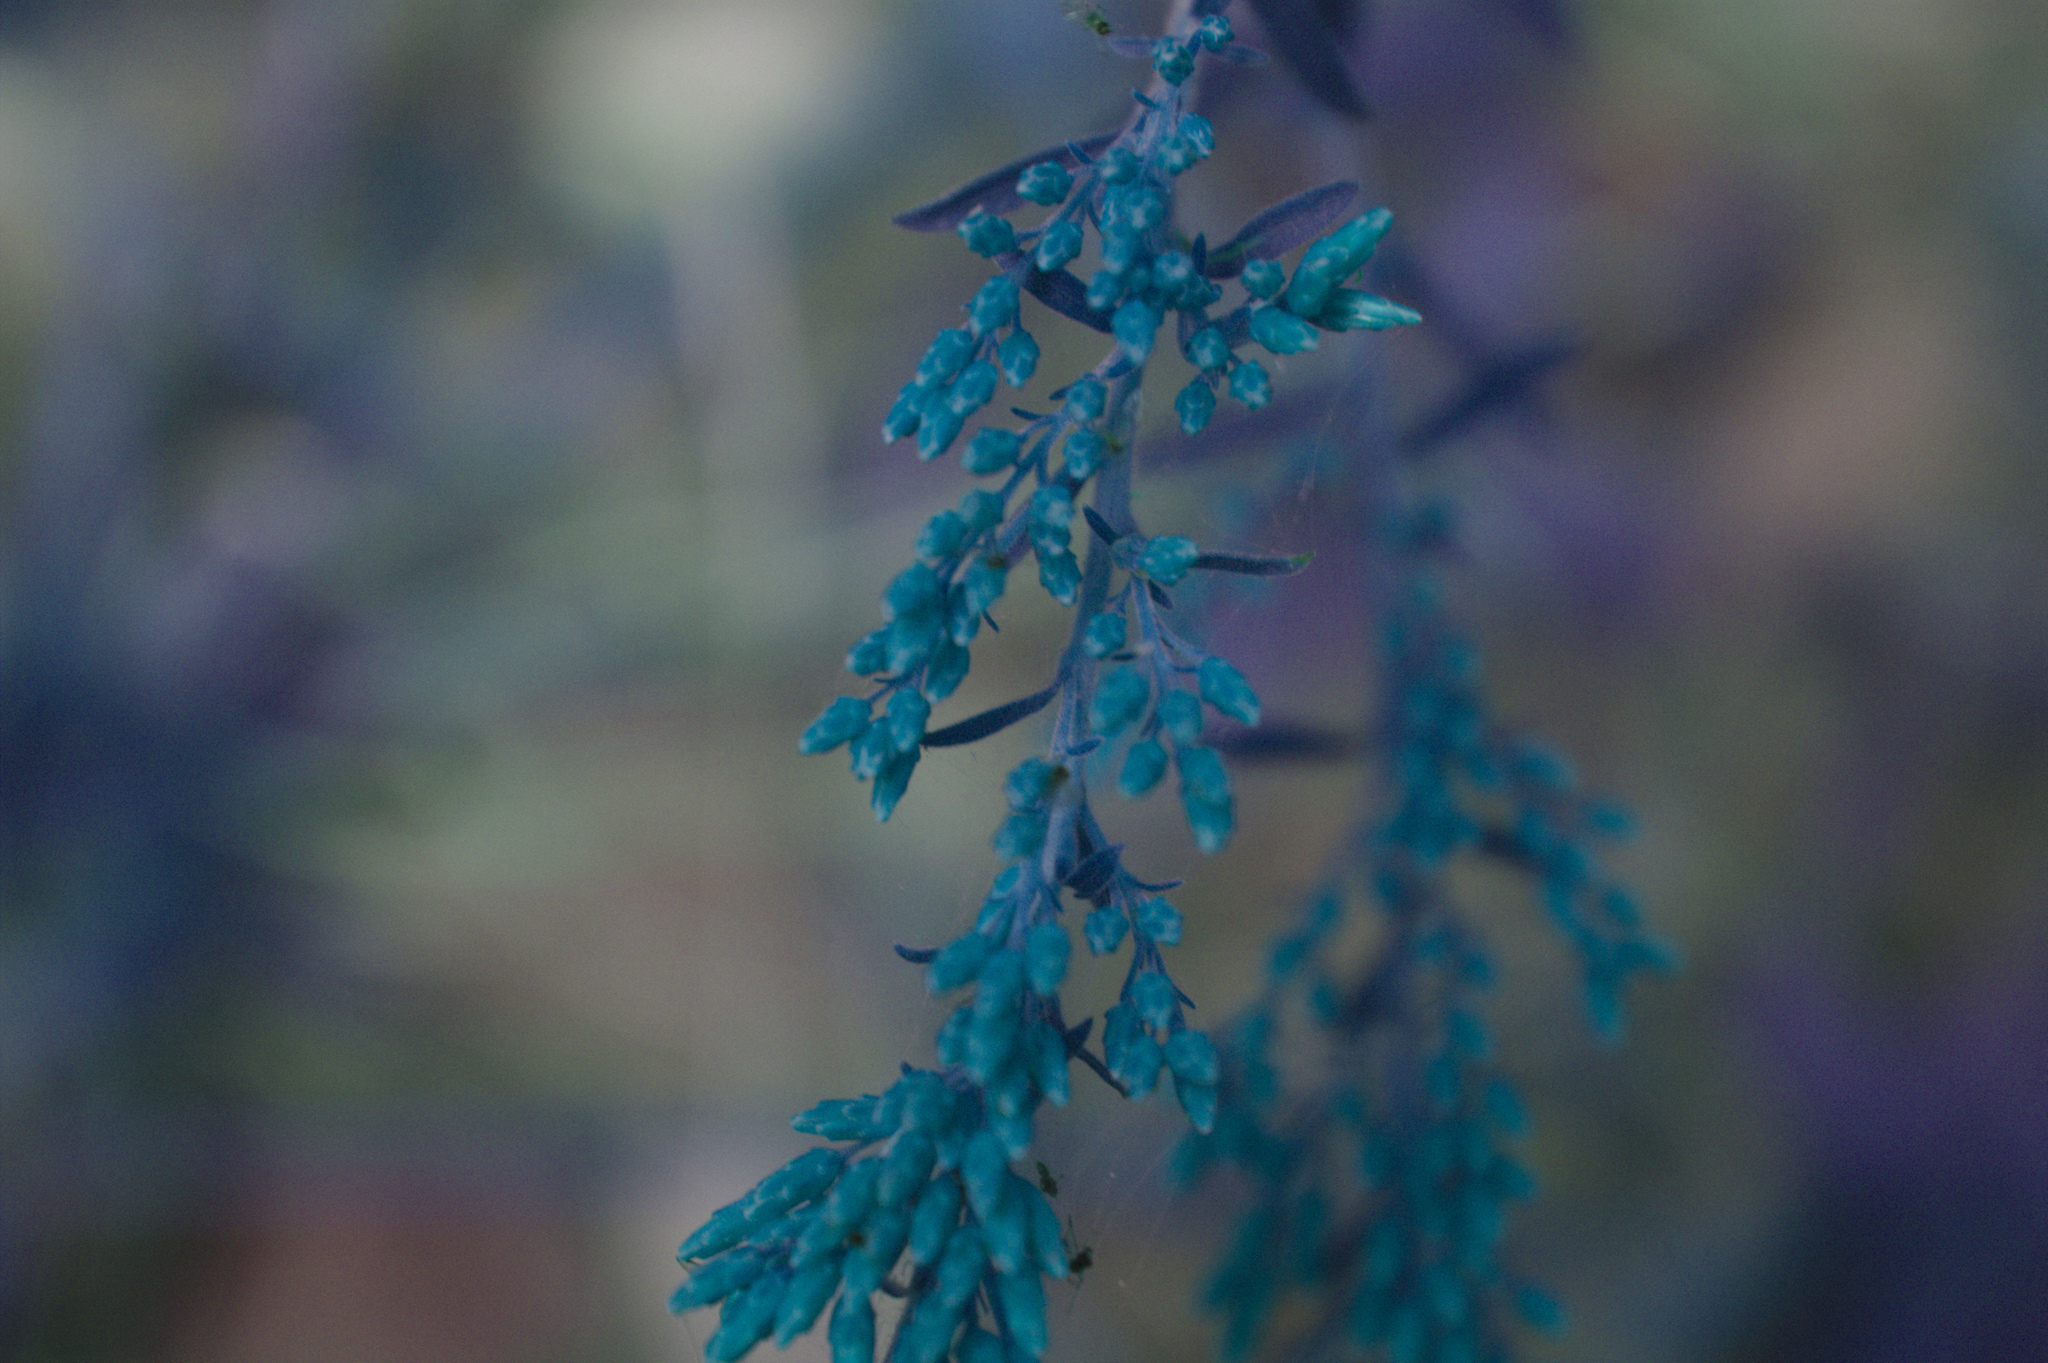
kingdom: Plantae
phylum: Tracheophyta
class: Magnoliopsida
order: Asterales
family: Asteraceae
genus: Solidago
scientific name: Solidago nemoralis
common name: Grey goldenrod
